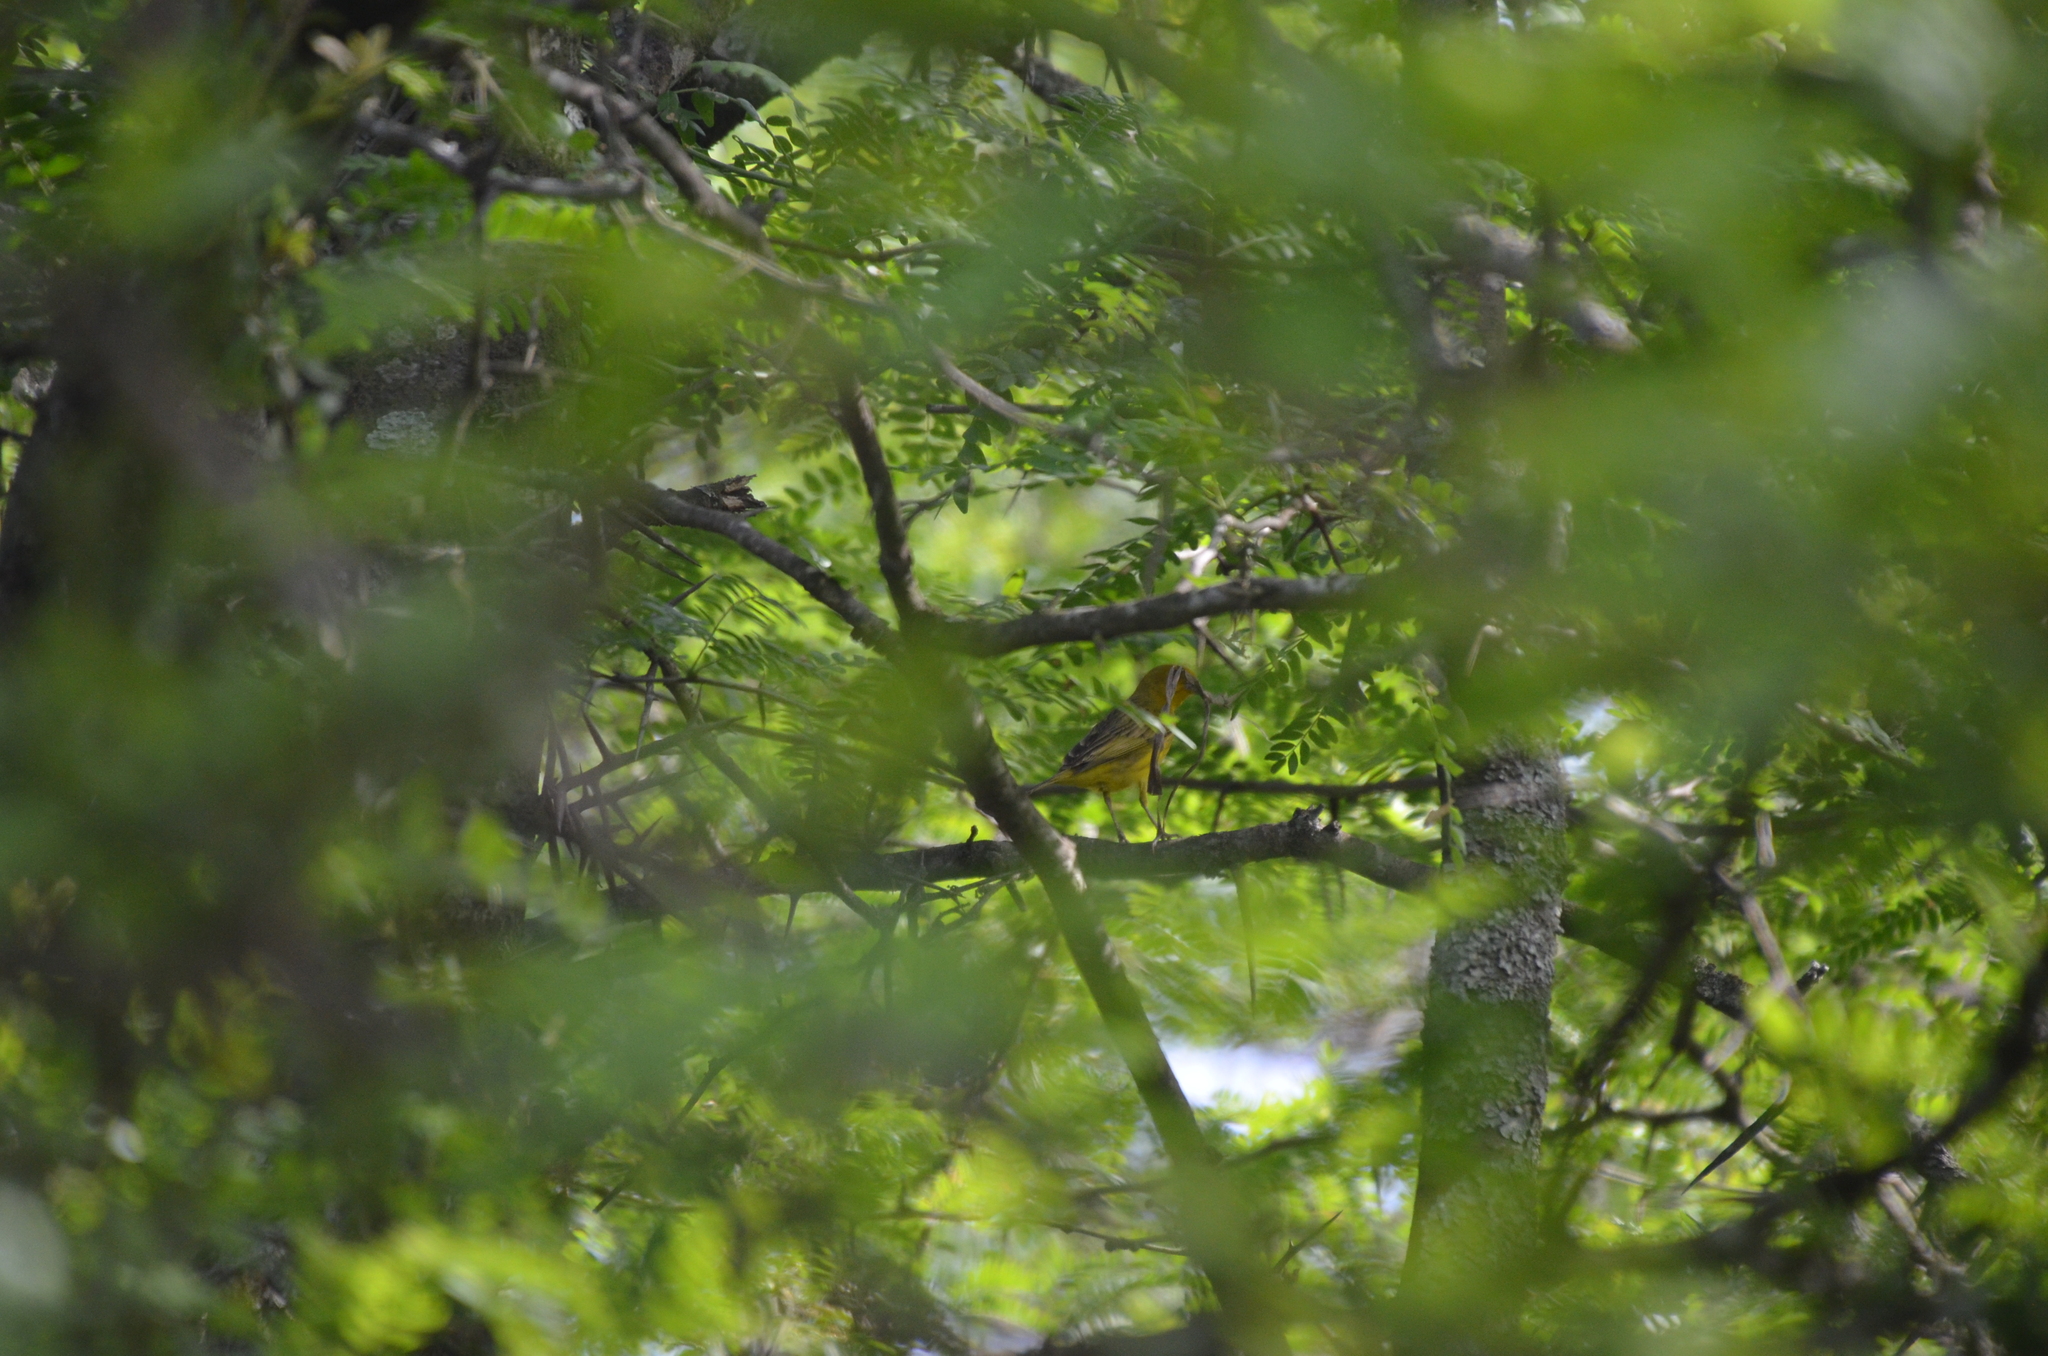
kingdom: Animalia
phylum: Chordata
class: Aves
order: Passeriformes
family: Thraupidae
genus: Sicalis
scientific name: Sicalis flaveola
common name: Saffron finch
